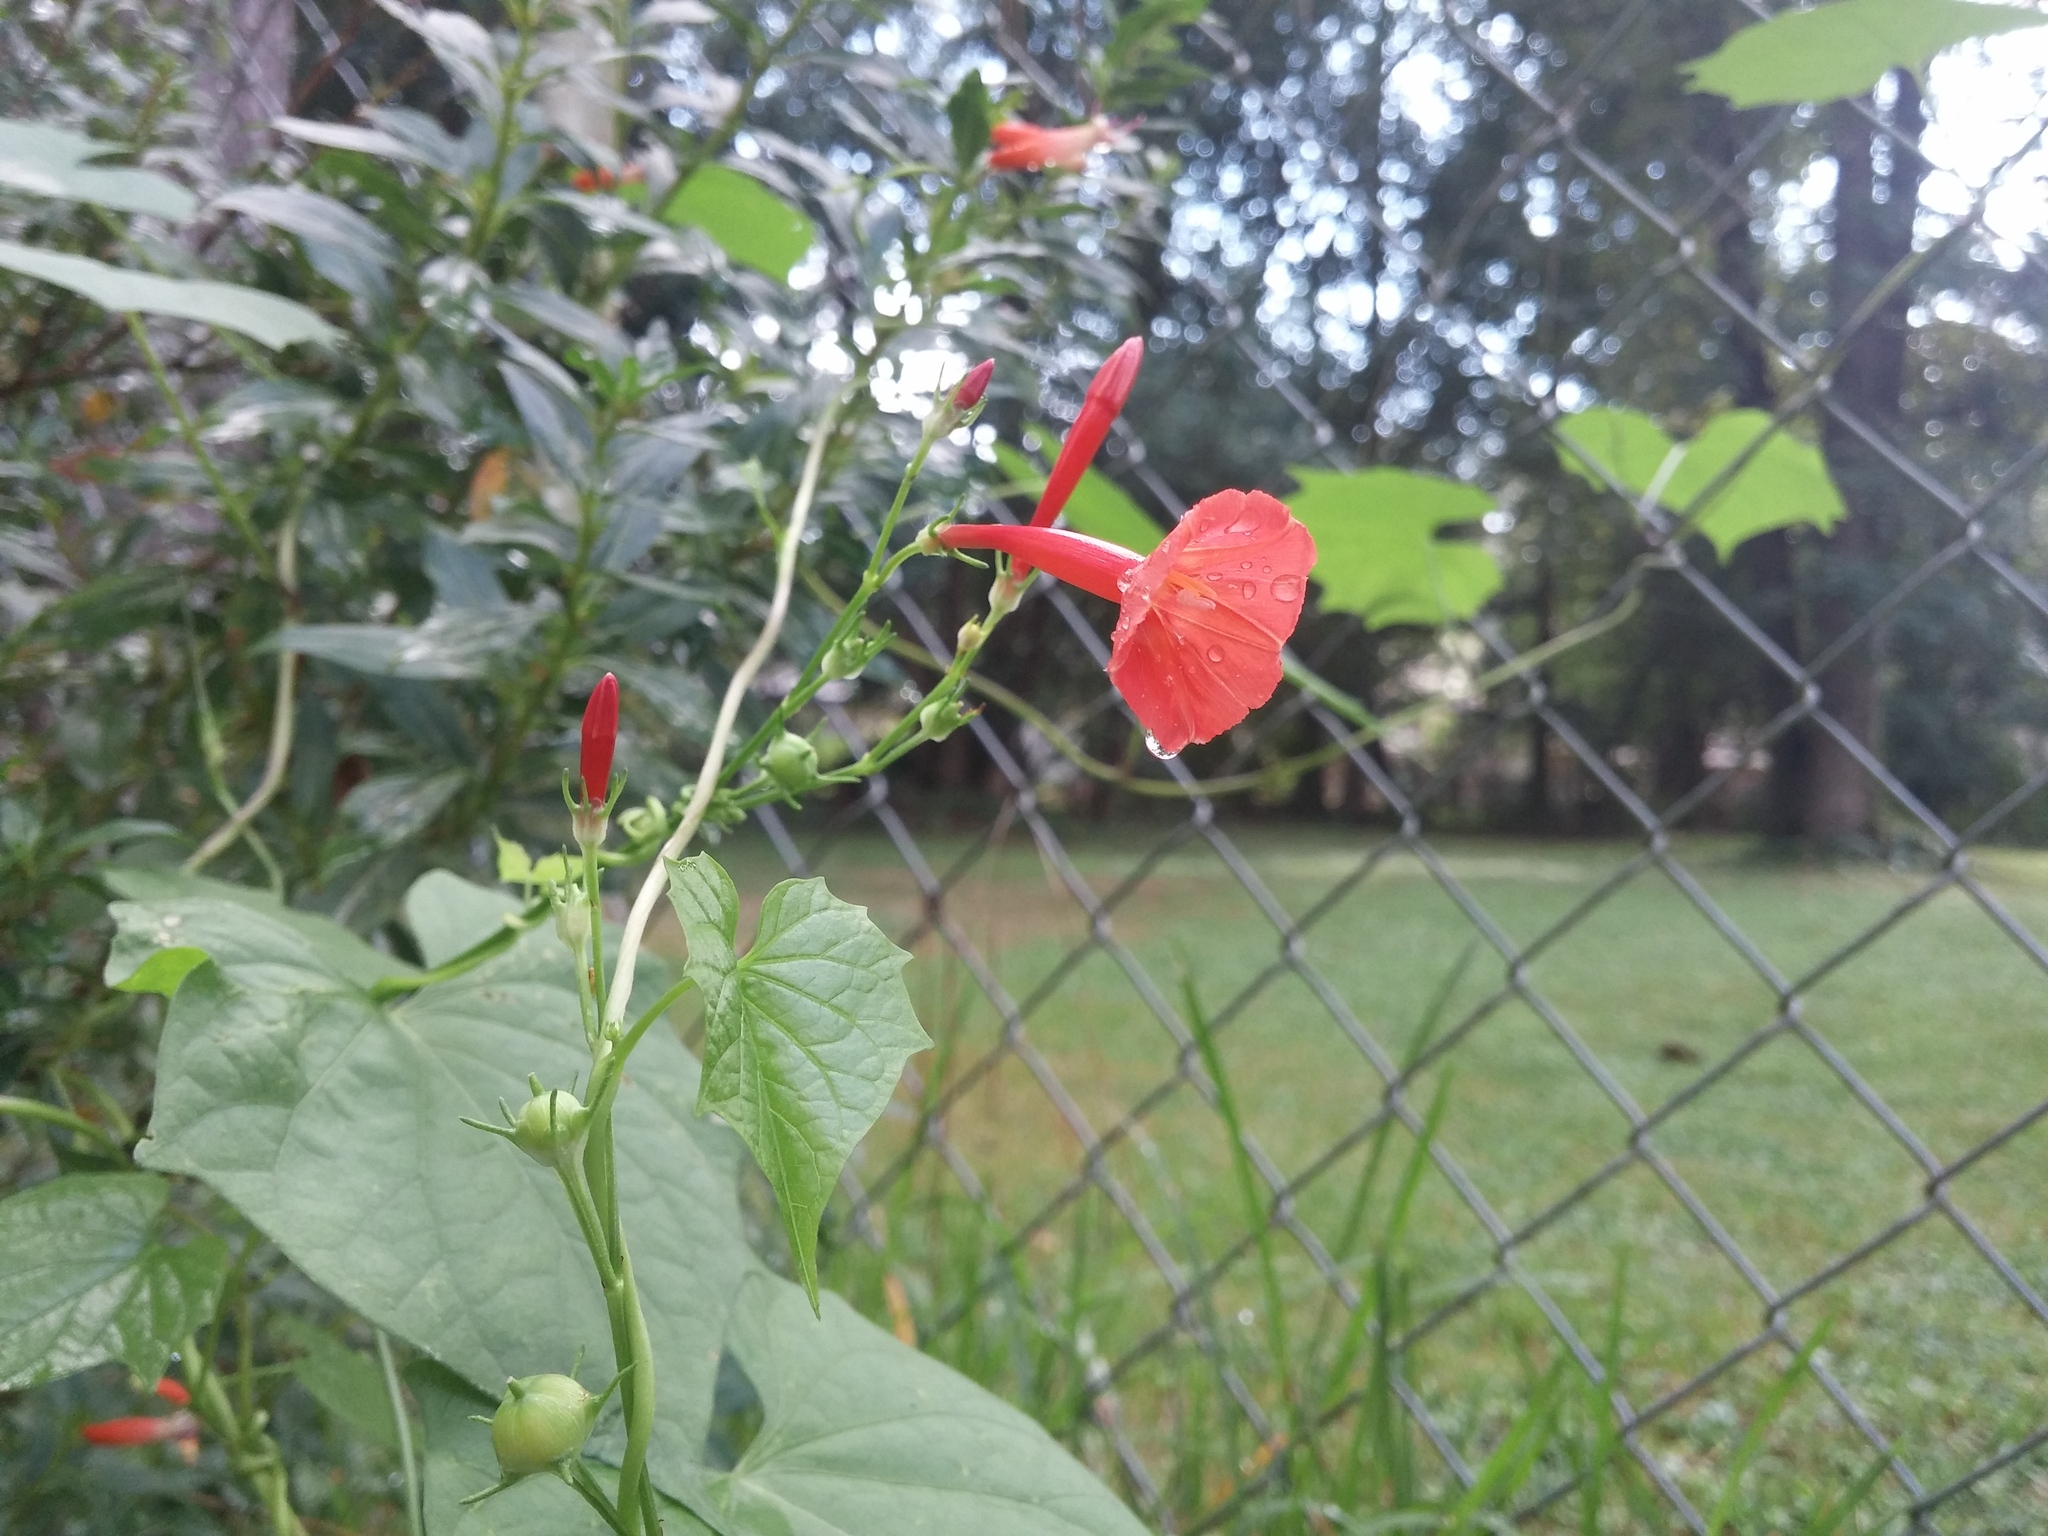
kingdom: Plantae
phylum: Tracheophyta
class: Magnoliopsida
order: Solanales
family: Convolvulaceae
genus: Ipomoea
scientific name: Ipomoea hederifolia
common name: Ivy-leaf morning-glory
